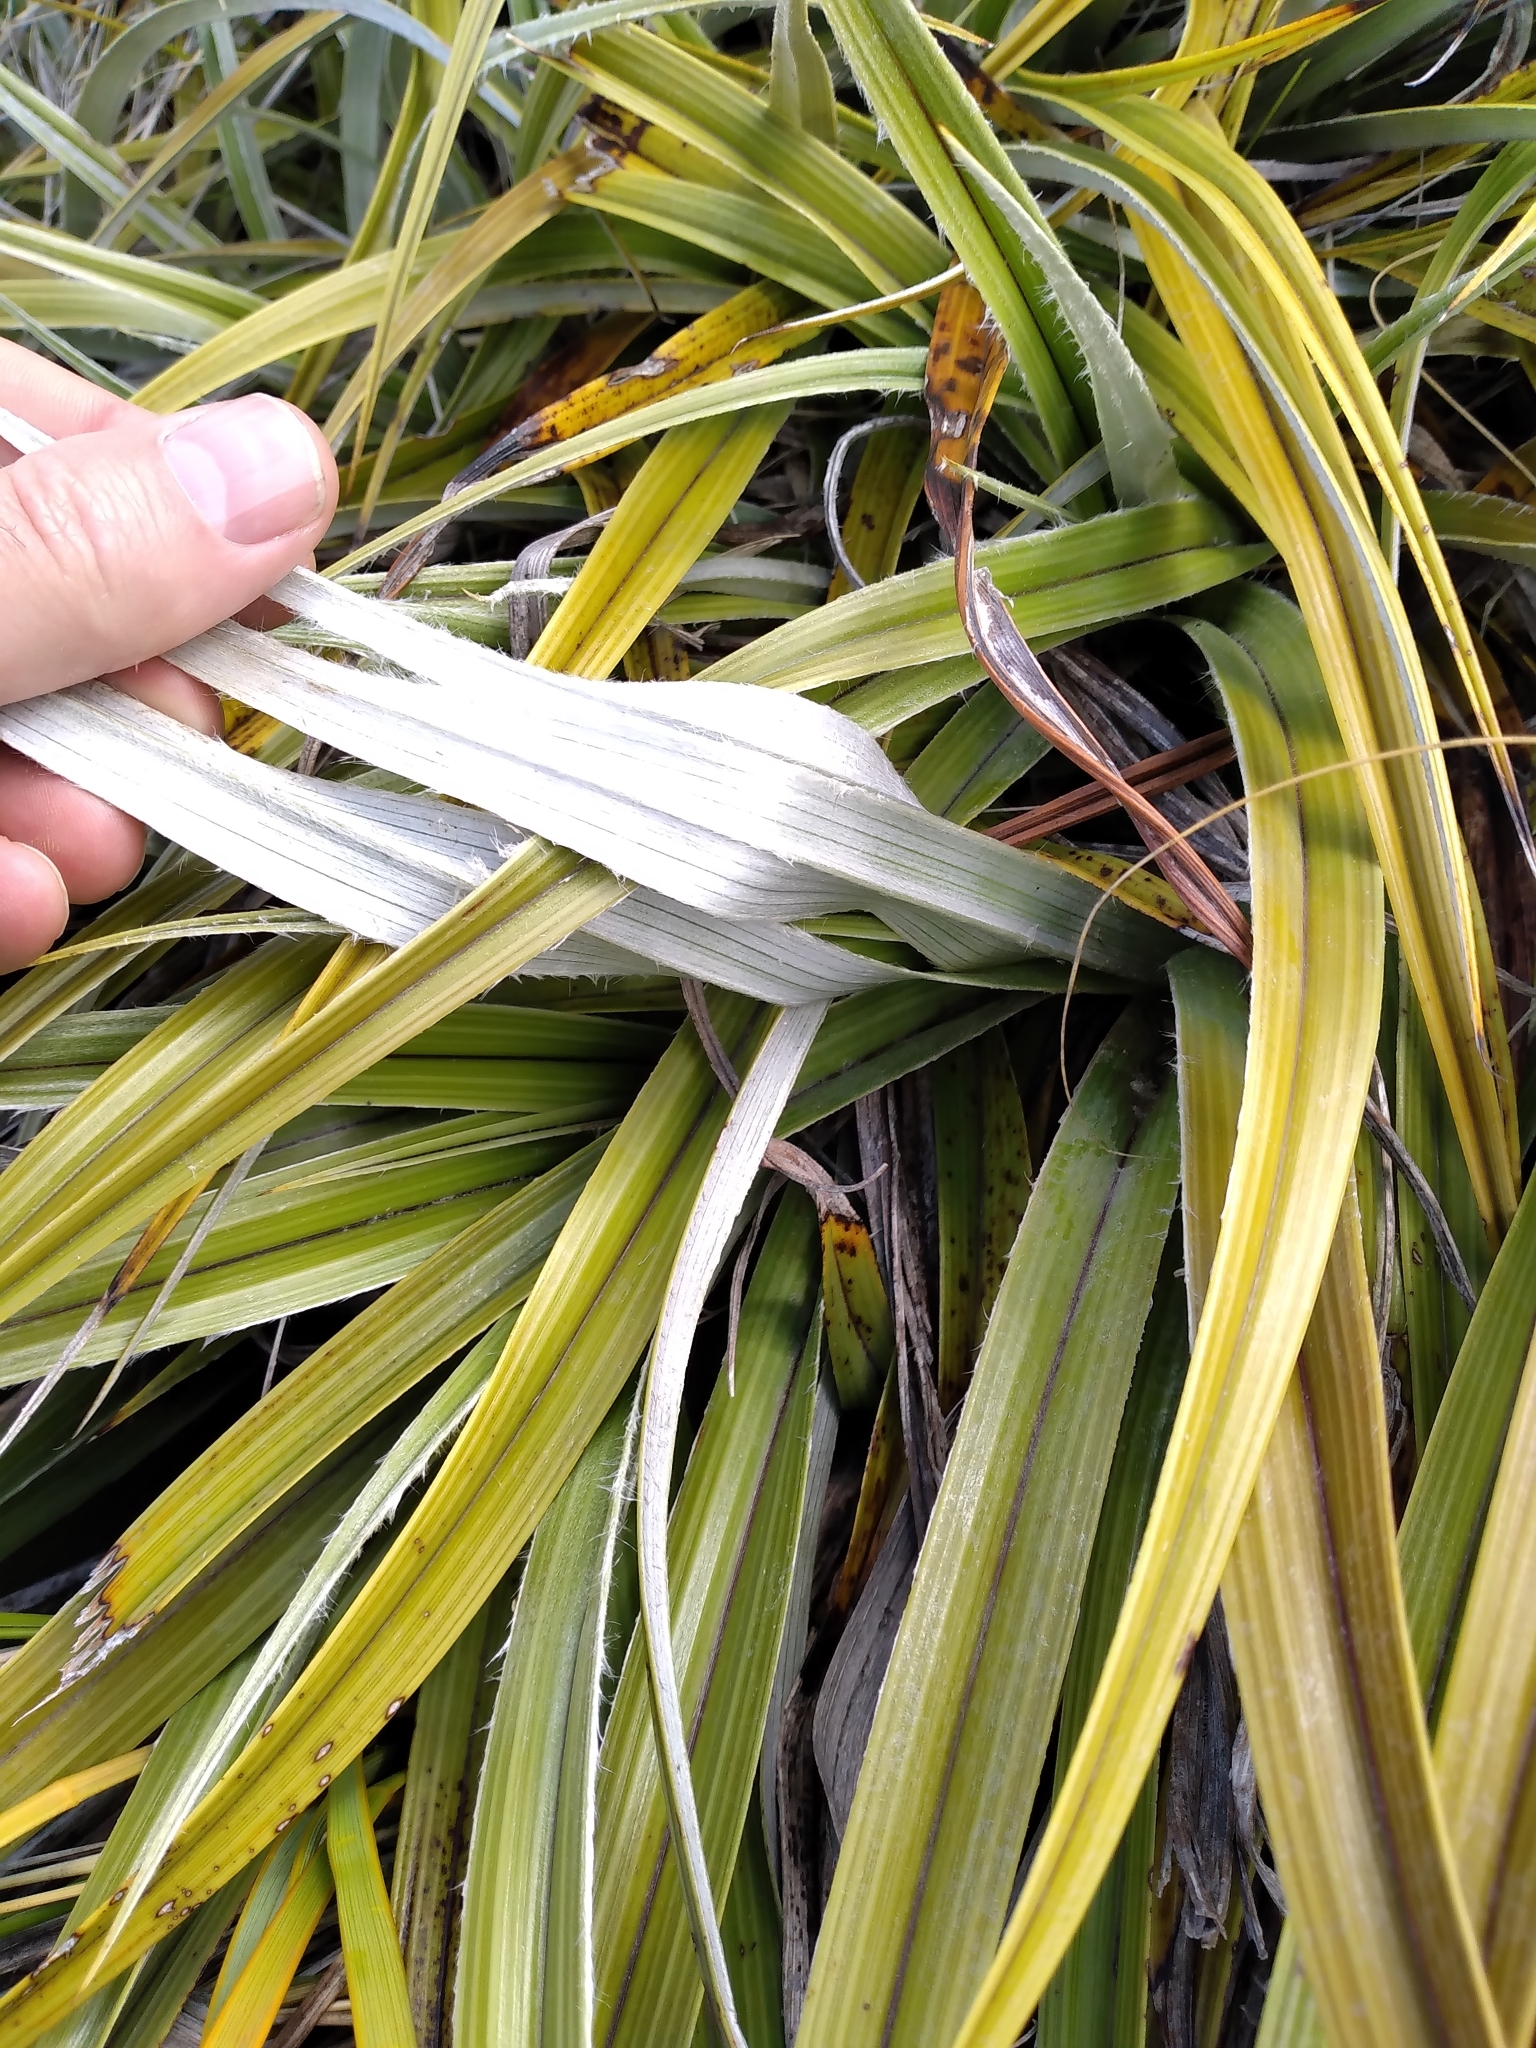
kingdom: Plantae
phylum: Tracheophyta
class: Liliopsida
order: Asparagales
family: Asteliaceae
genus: Astelia
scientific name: Astelia nervosa
